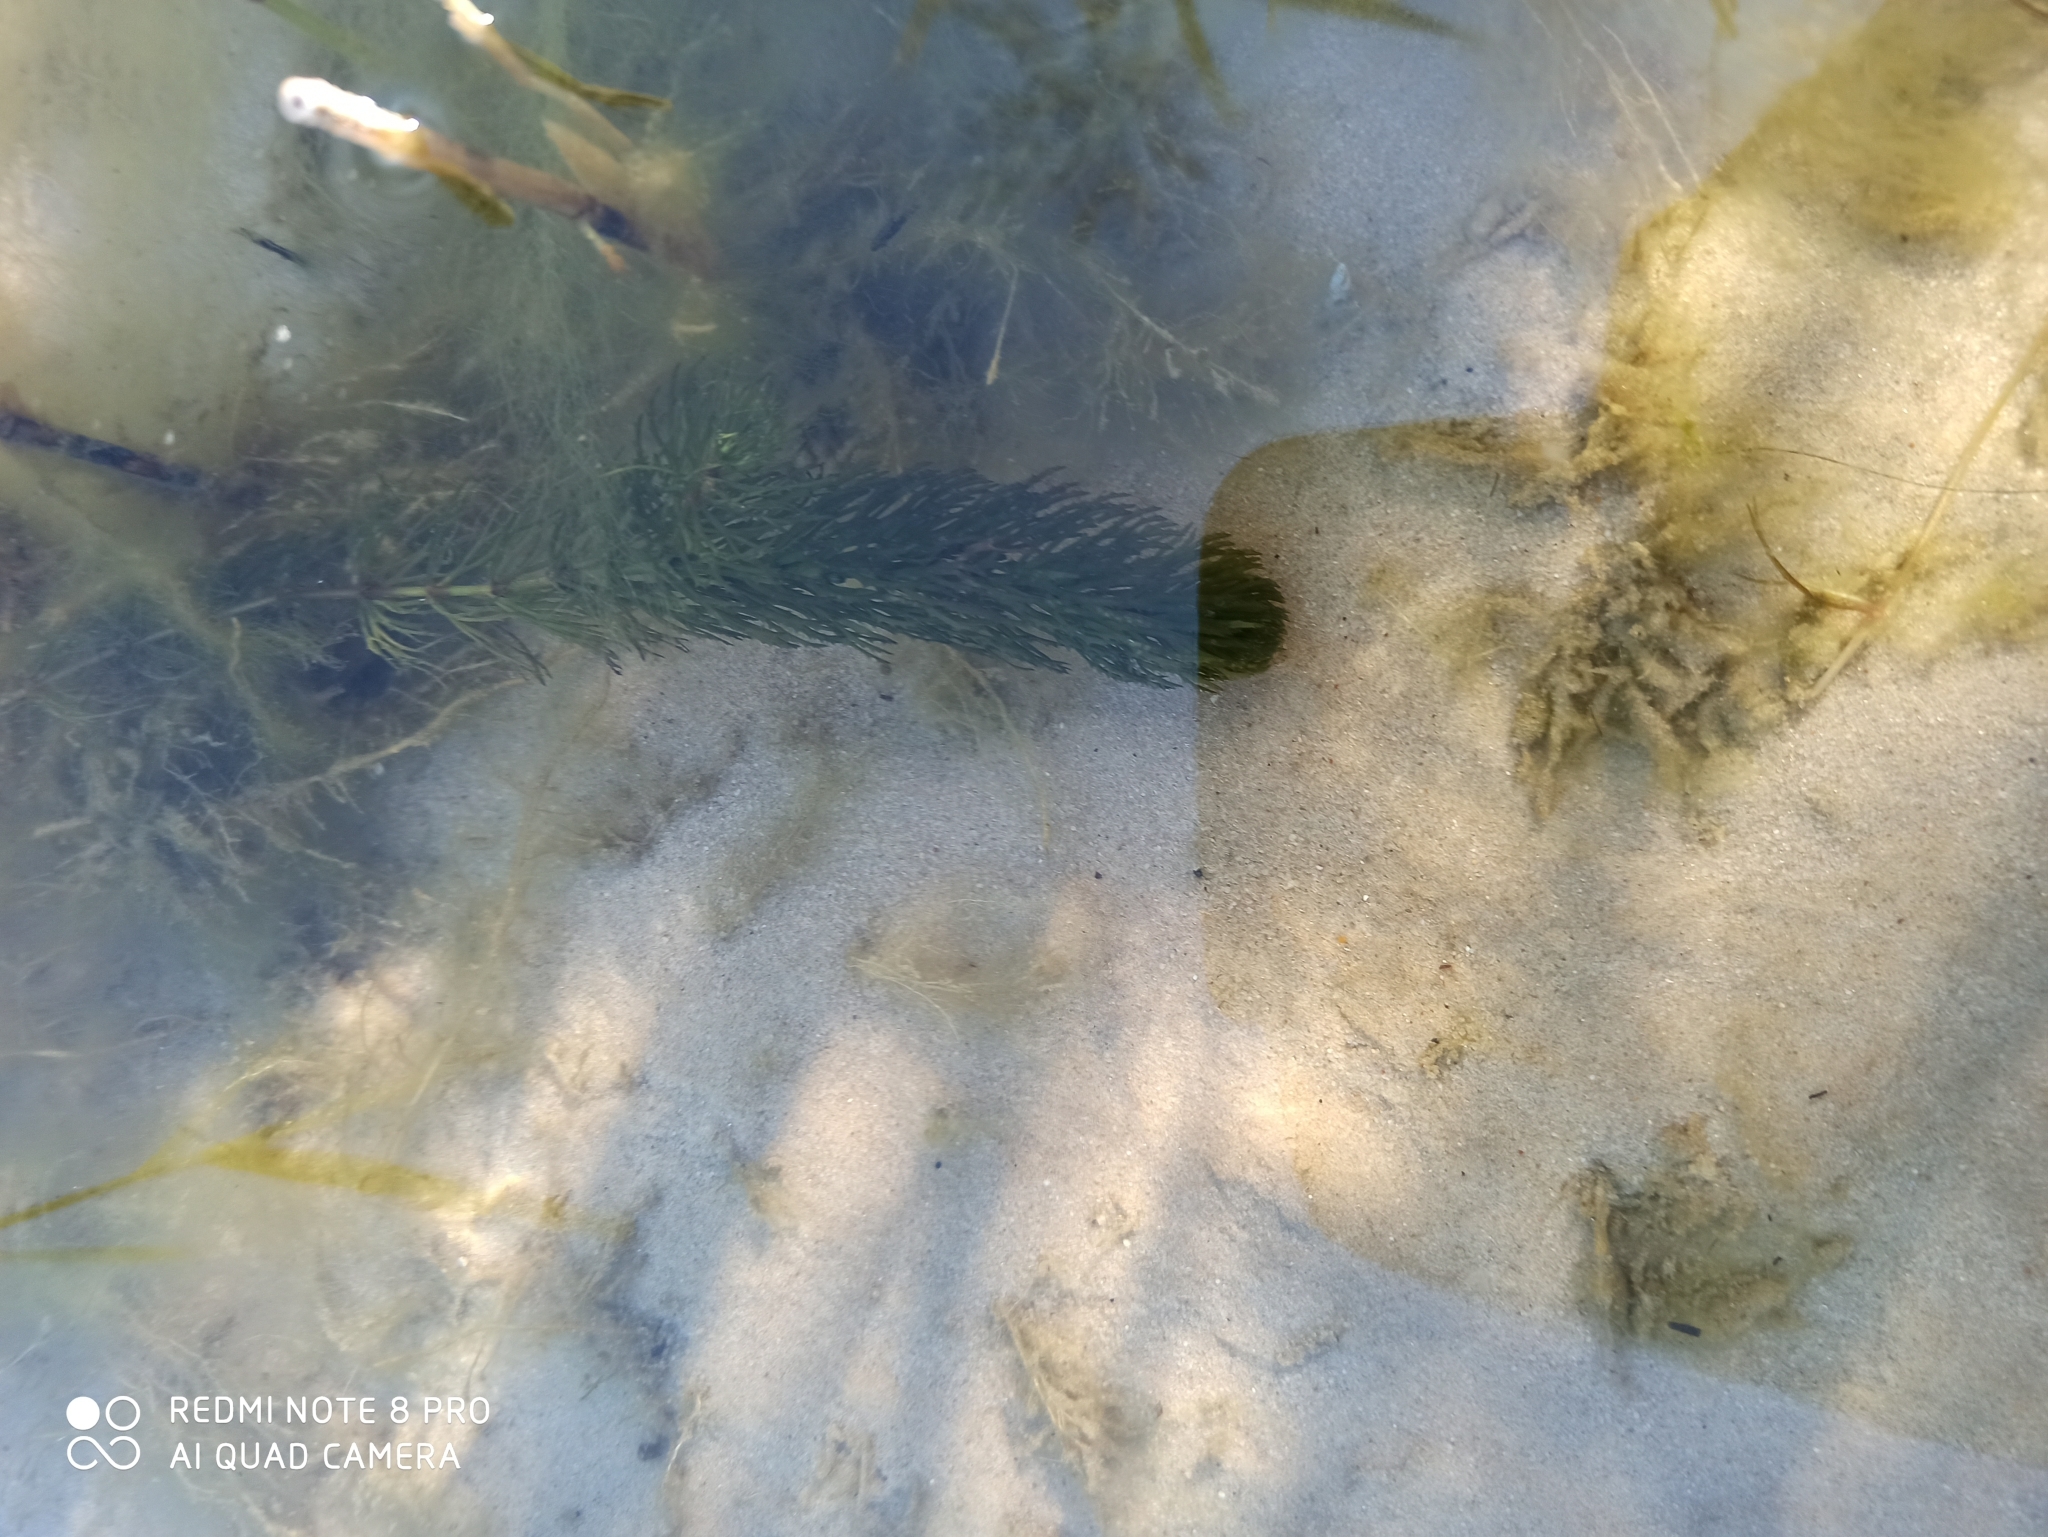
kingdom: Plantae
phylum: Tracheophyta
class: Magnoliopsida
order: Ceratophyllales
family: Ceratophyllaceae
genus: Ceratophyllum
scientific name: Ceratophyllum demersum
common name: Rigid hornwort
